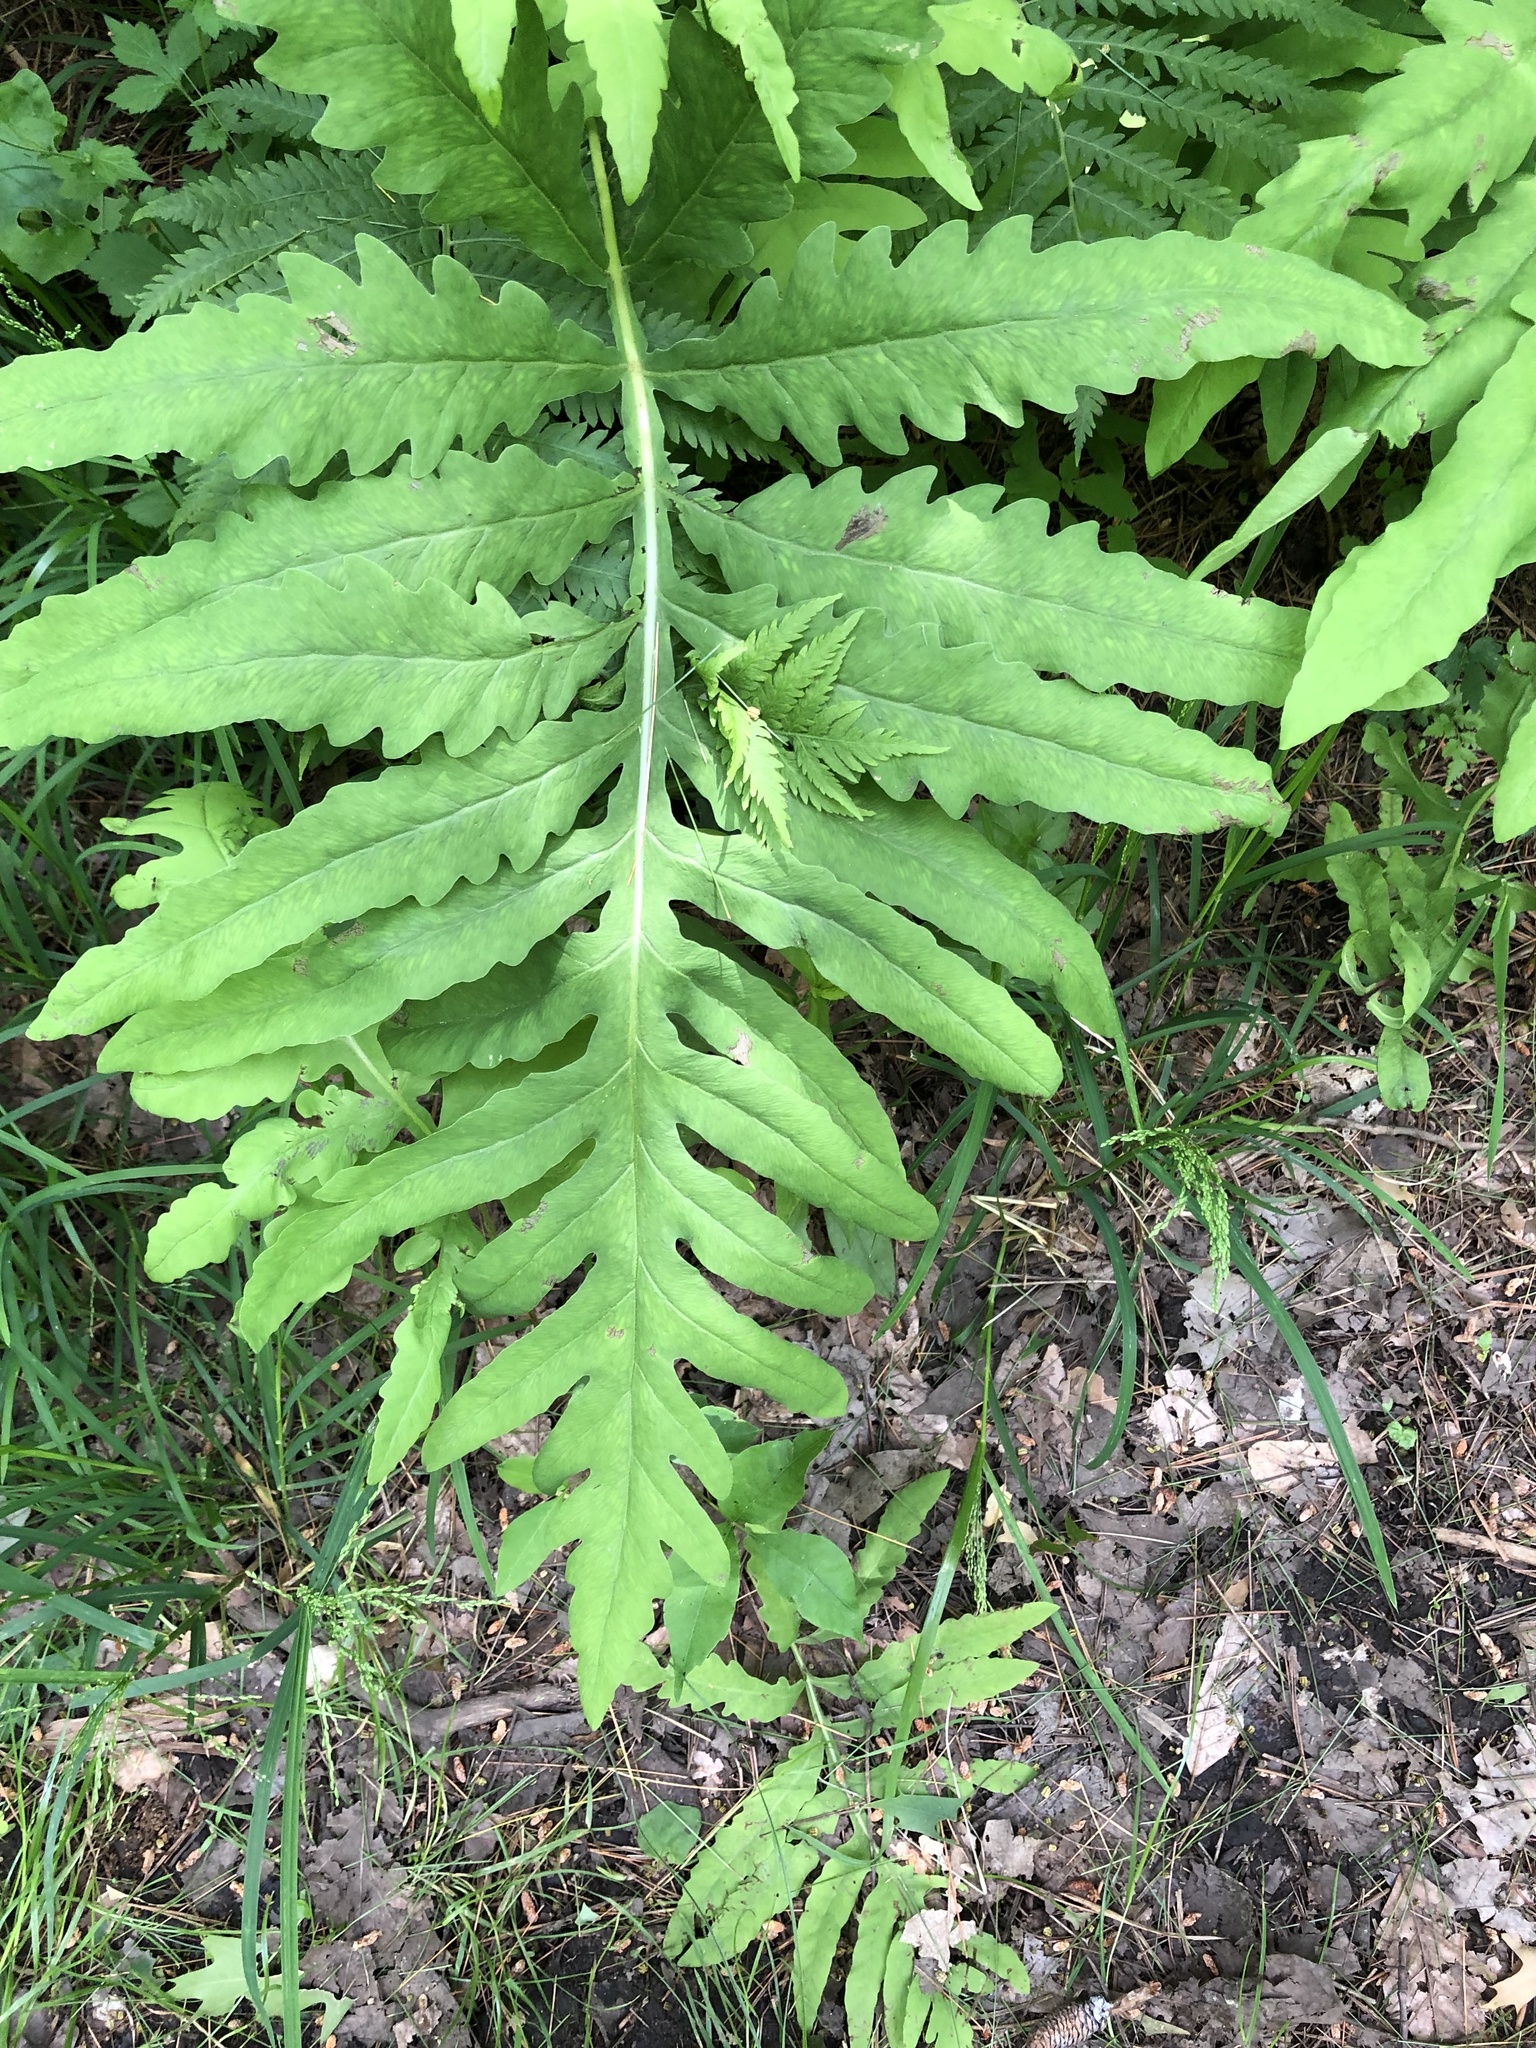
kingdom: Plantae
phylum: Tracheophyta
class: Polypodiopsida
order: Polypodiales
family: Onocleaceae
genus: Onoclea
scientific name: Onoclea sensibilis
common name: Sensitive fern
